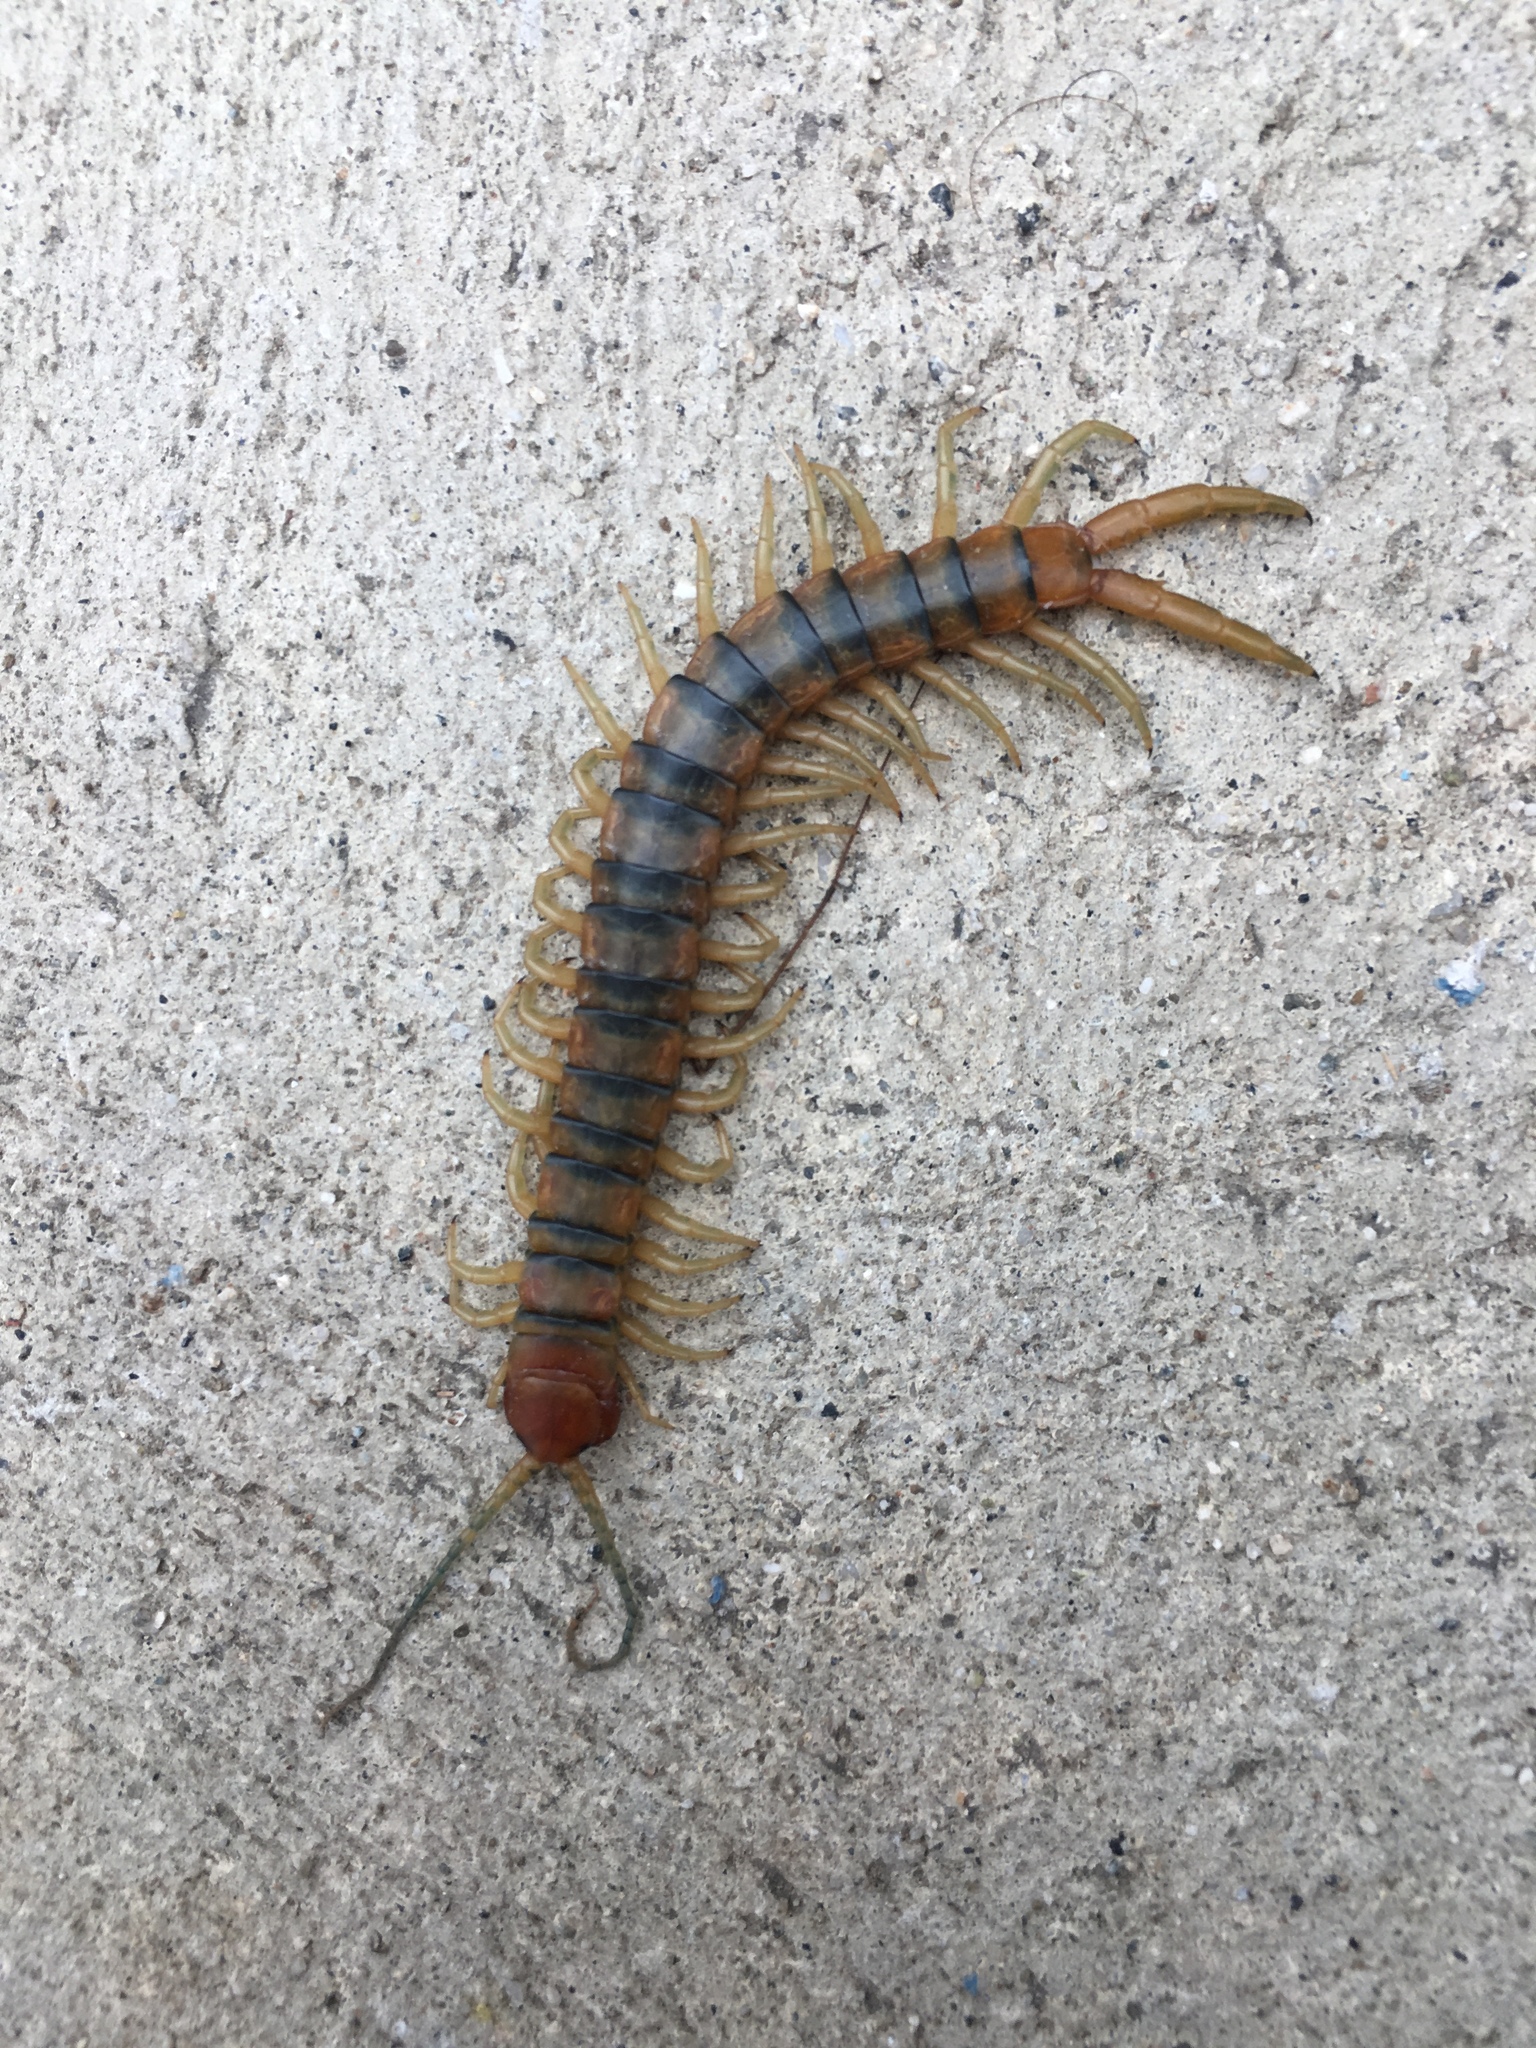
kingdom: Animalia
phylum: Arthropoda
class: Chilopoda
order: Scolopendromorpha
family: Scolopendridae
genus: Scolopendra
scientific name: Scolopendra polymorpha
